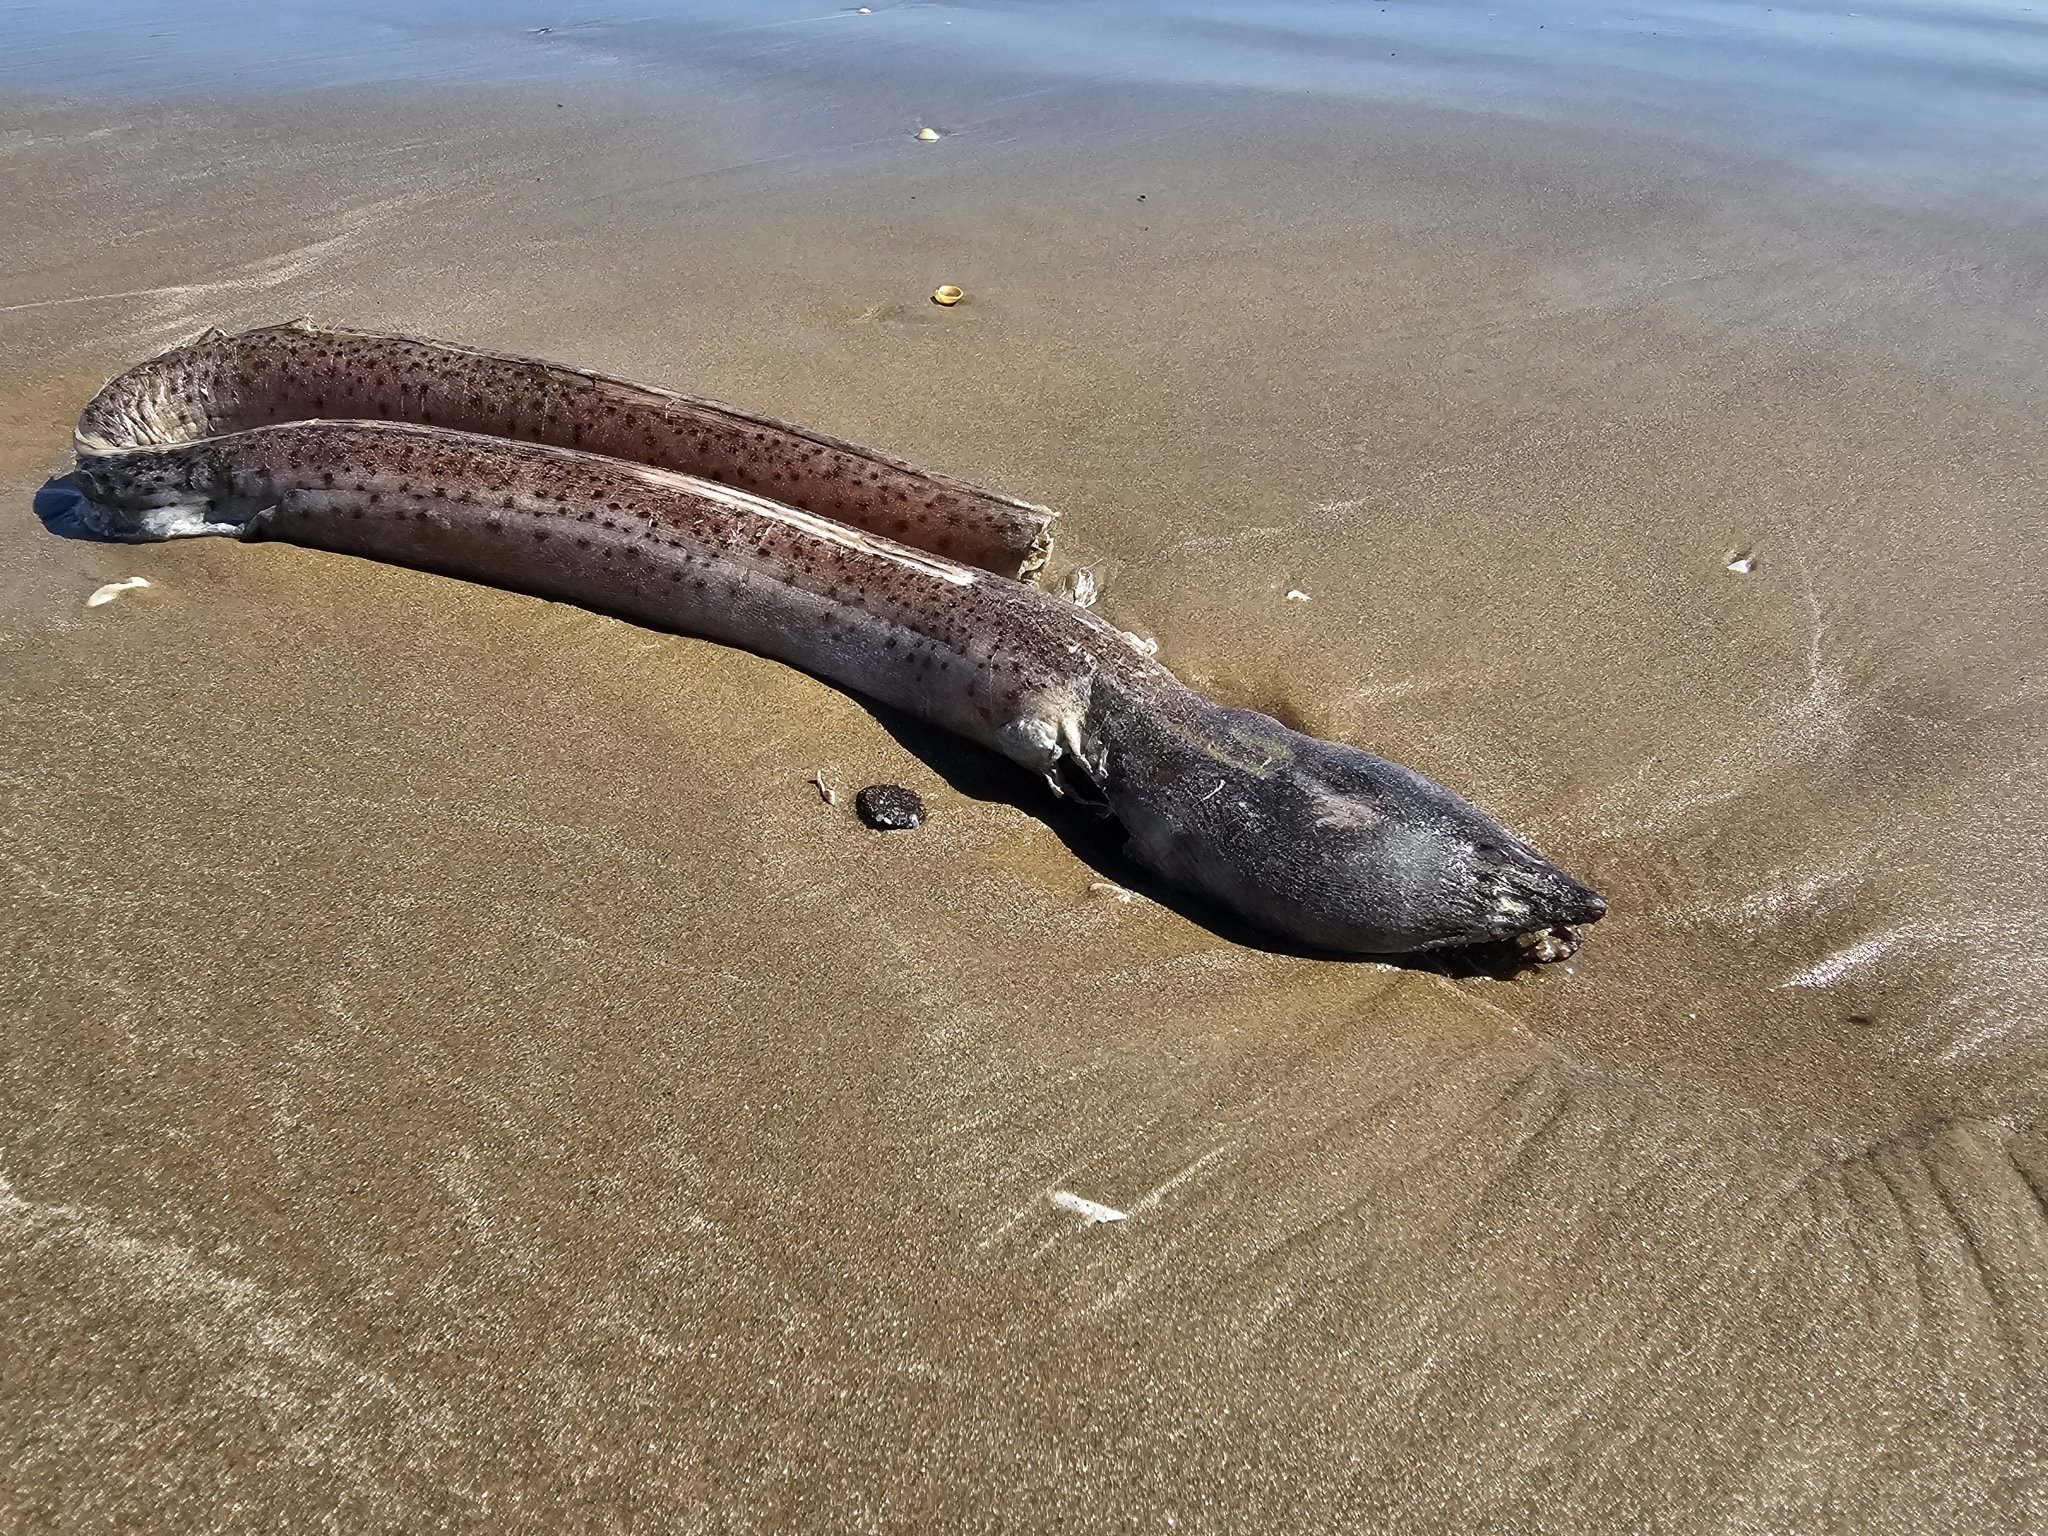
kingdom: Animalia
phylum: Chordata
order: Anguilliformes
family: Ophichthidae
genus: Echiophis
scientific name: Echiophis punctifer
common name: Snapper eel
